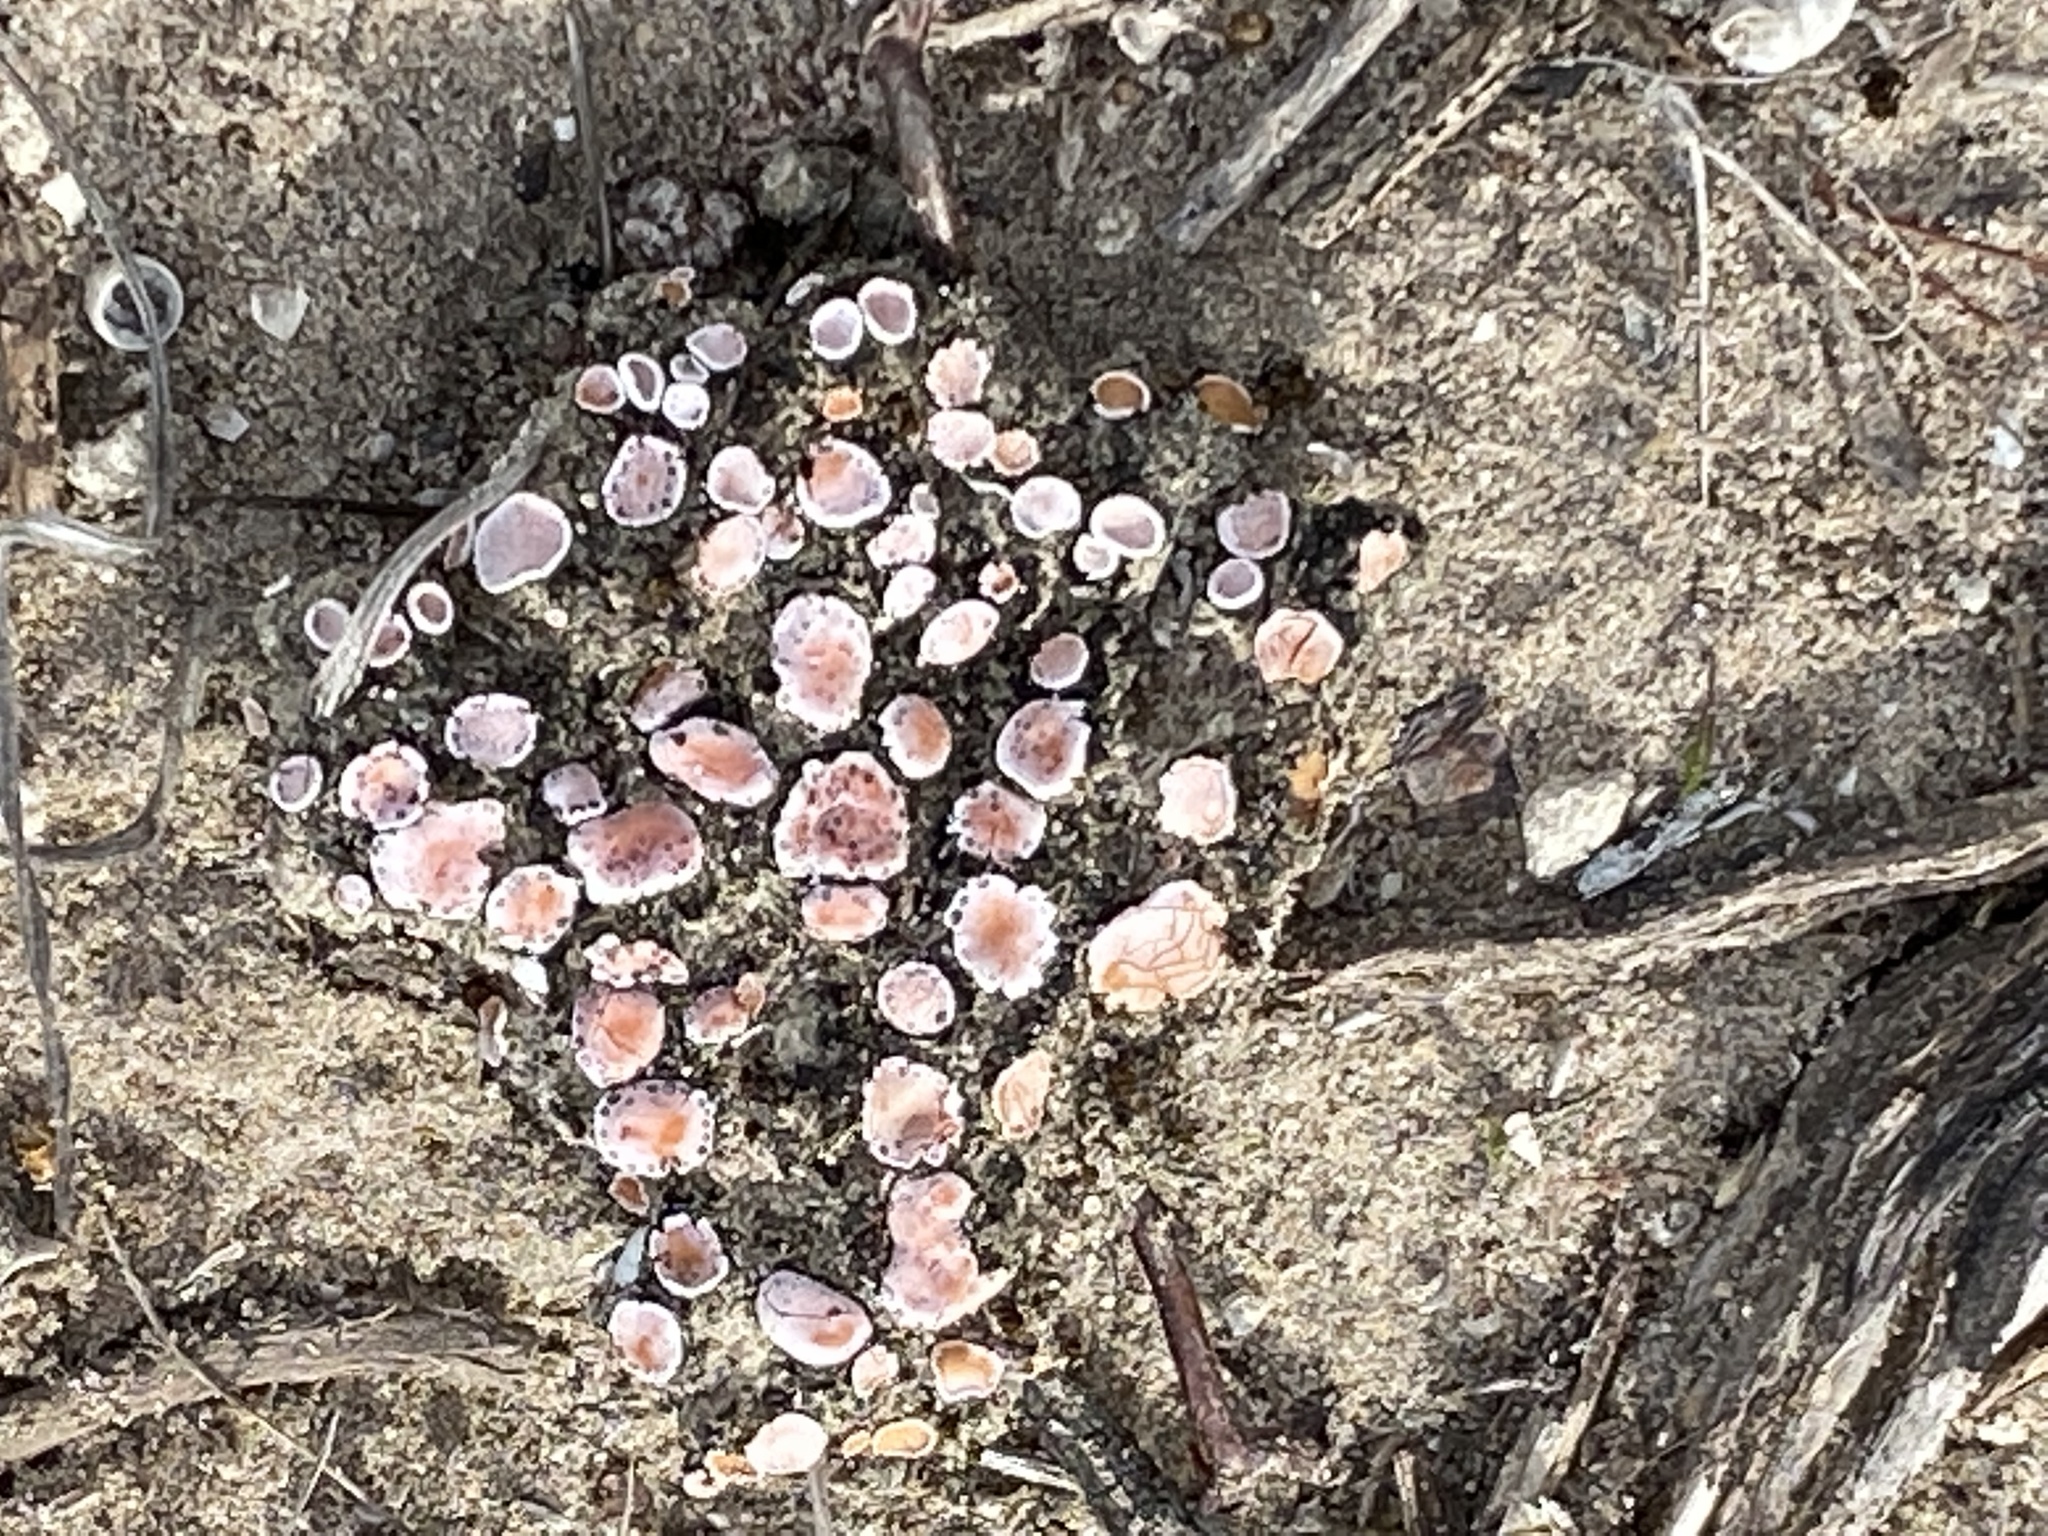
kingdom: Fungi
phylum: Ascomycota
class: Lecanoromycetes
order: Lecanorales
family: Psoraceae
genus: Psora
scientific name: Psora decipiens
